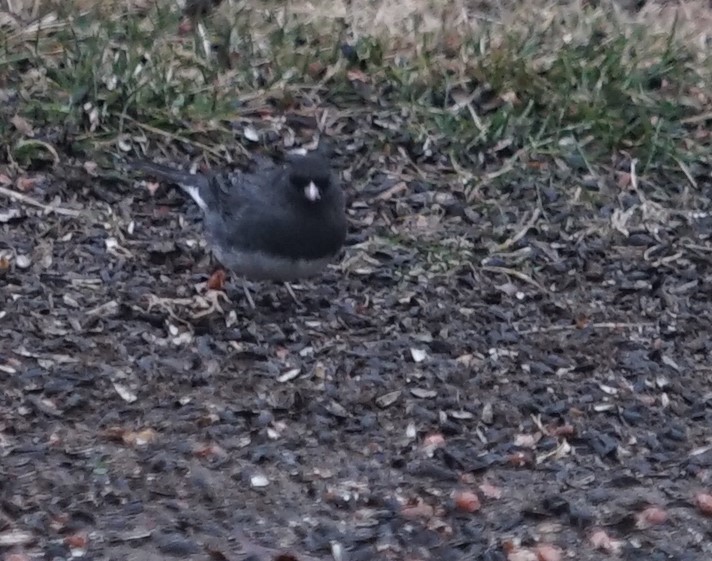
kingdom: Animalia
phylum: Chordata
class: Aves
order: Passeriformes
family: Passerellidae
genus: Junco
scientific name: Junco hyemalis
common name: Dark-eyed junco
